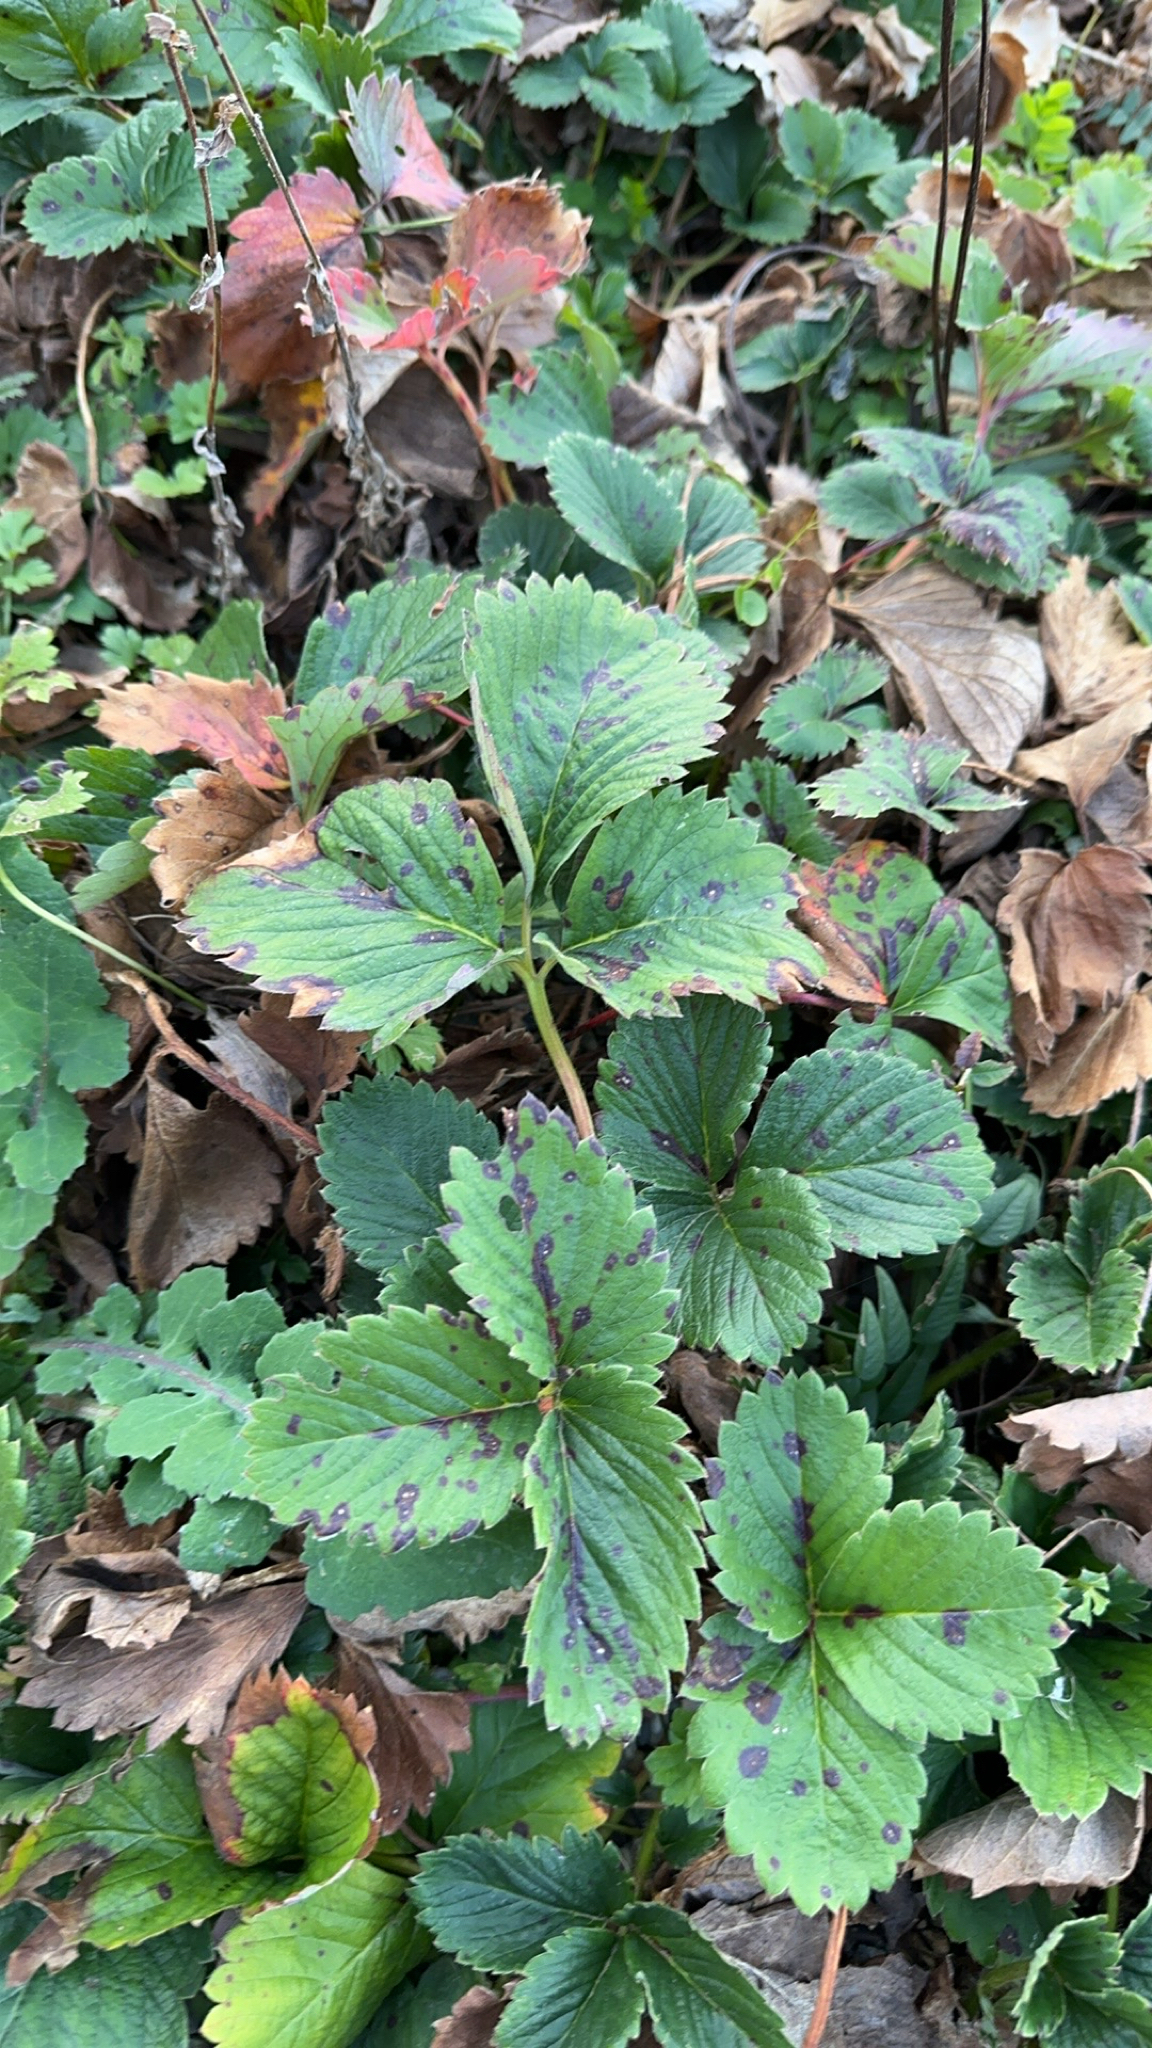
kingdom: Plantae
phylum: Tracheophyta
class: Magnoliopsida
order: Rosales
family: Rosaceae
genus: Fragaria
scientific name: Fragaria ananassa
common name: Garden strawberry
